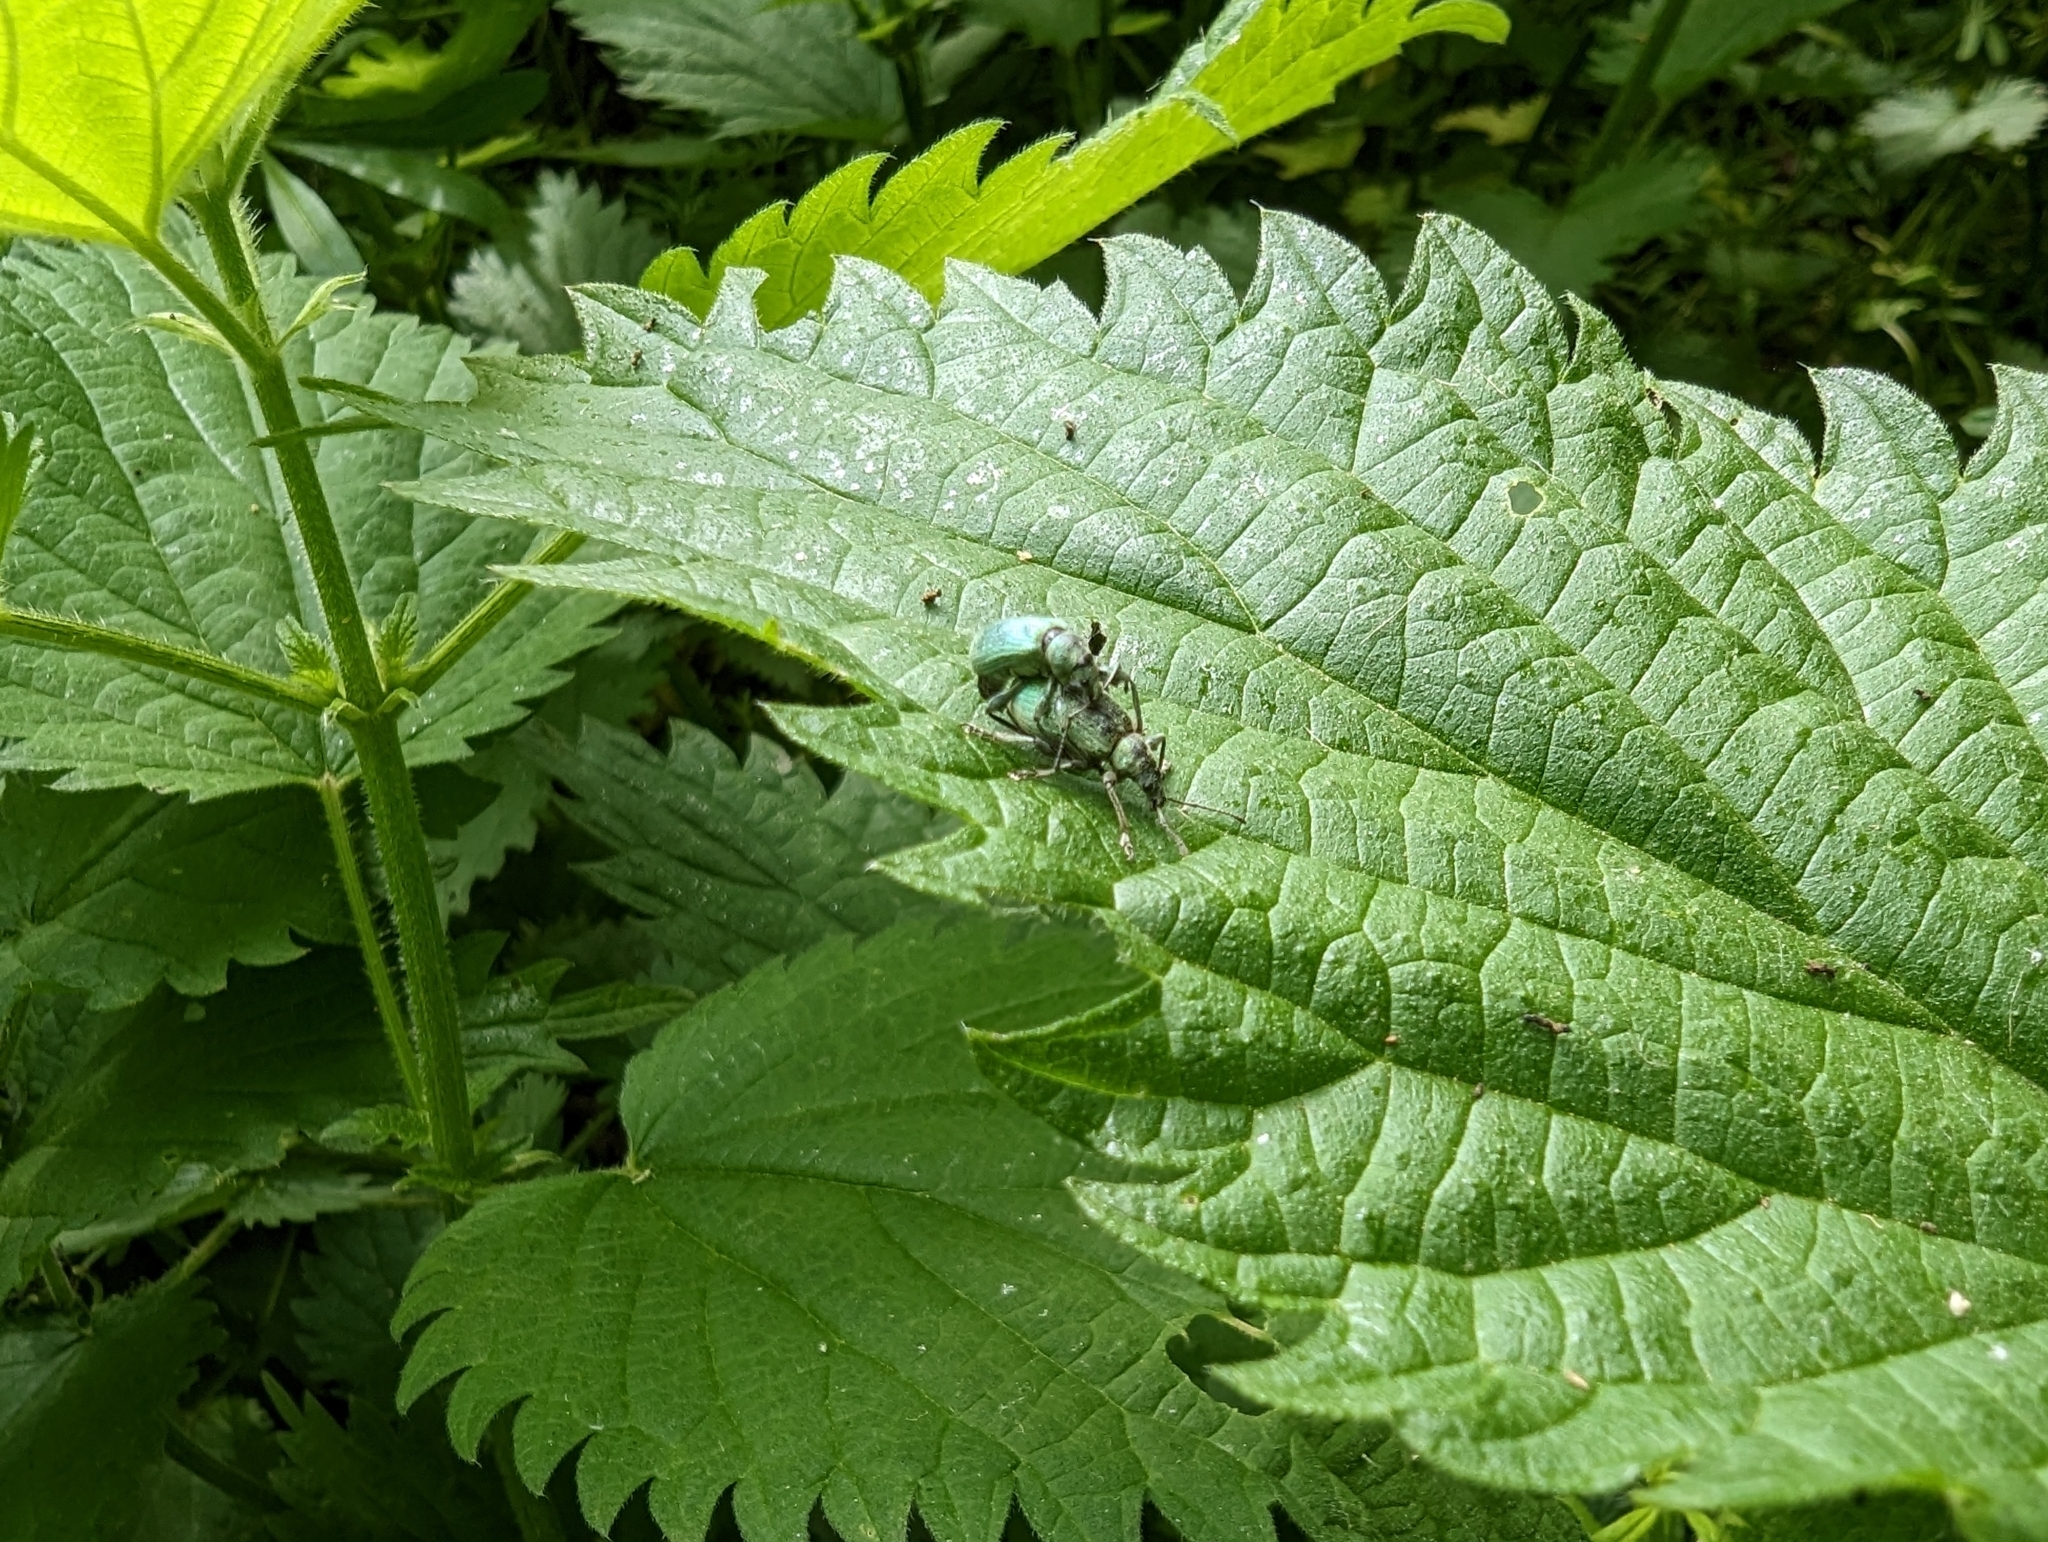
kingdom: Animalia
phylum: Arthropoda
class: Insecta
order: Coleoptera
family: Curculionidae
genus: Phyllobius
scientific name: Phyllobius pomaceus
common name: Green nettle weevil
